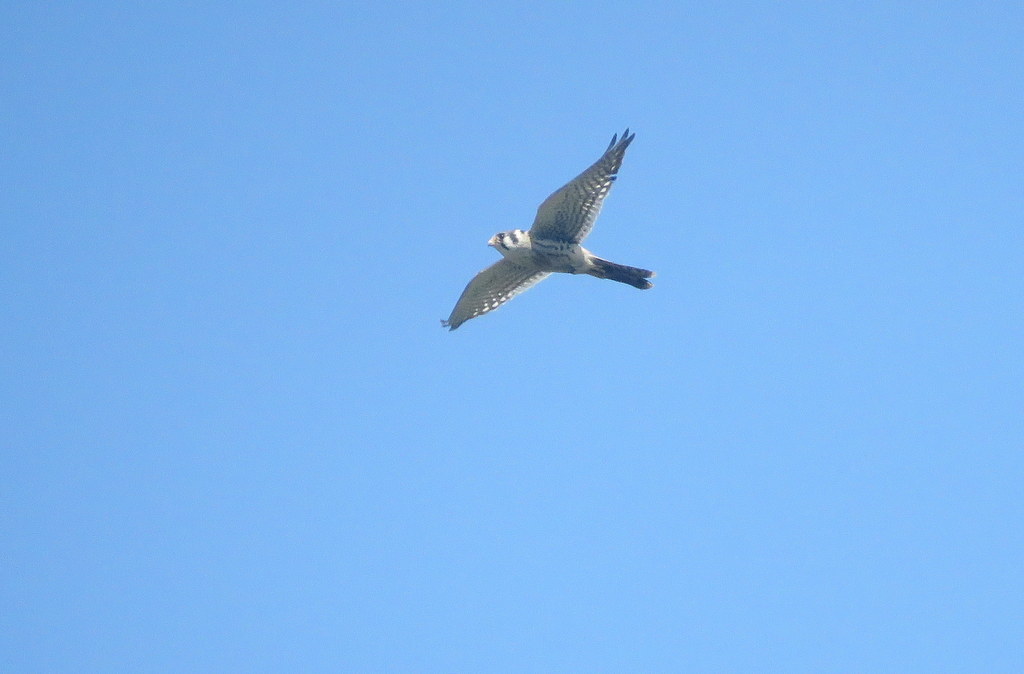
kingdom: Animalia
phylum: Chordata
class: Aves
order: Falconiformes
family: Falconidae
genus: Falco
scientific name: Falco sparverius
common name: American kestrel
